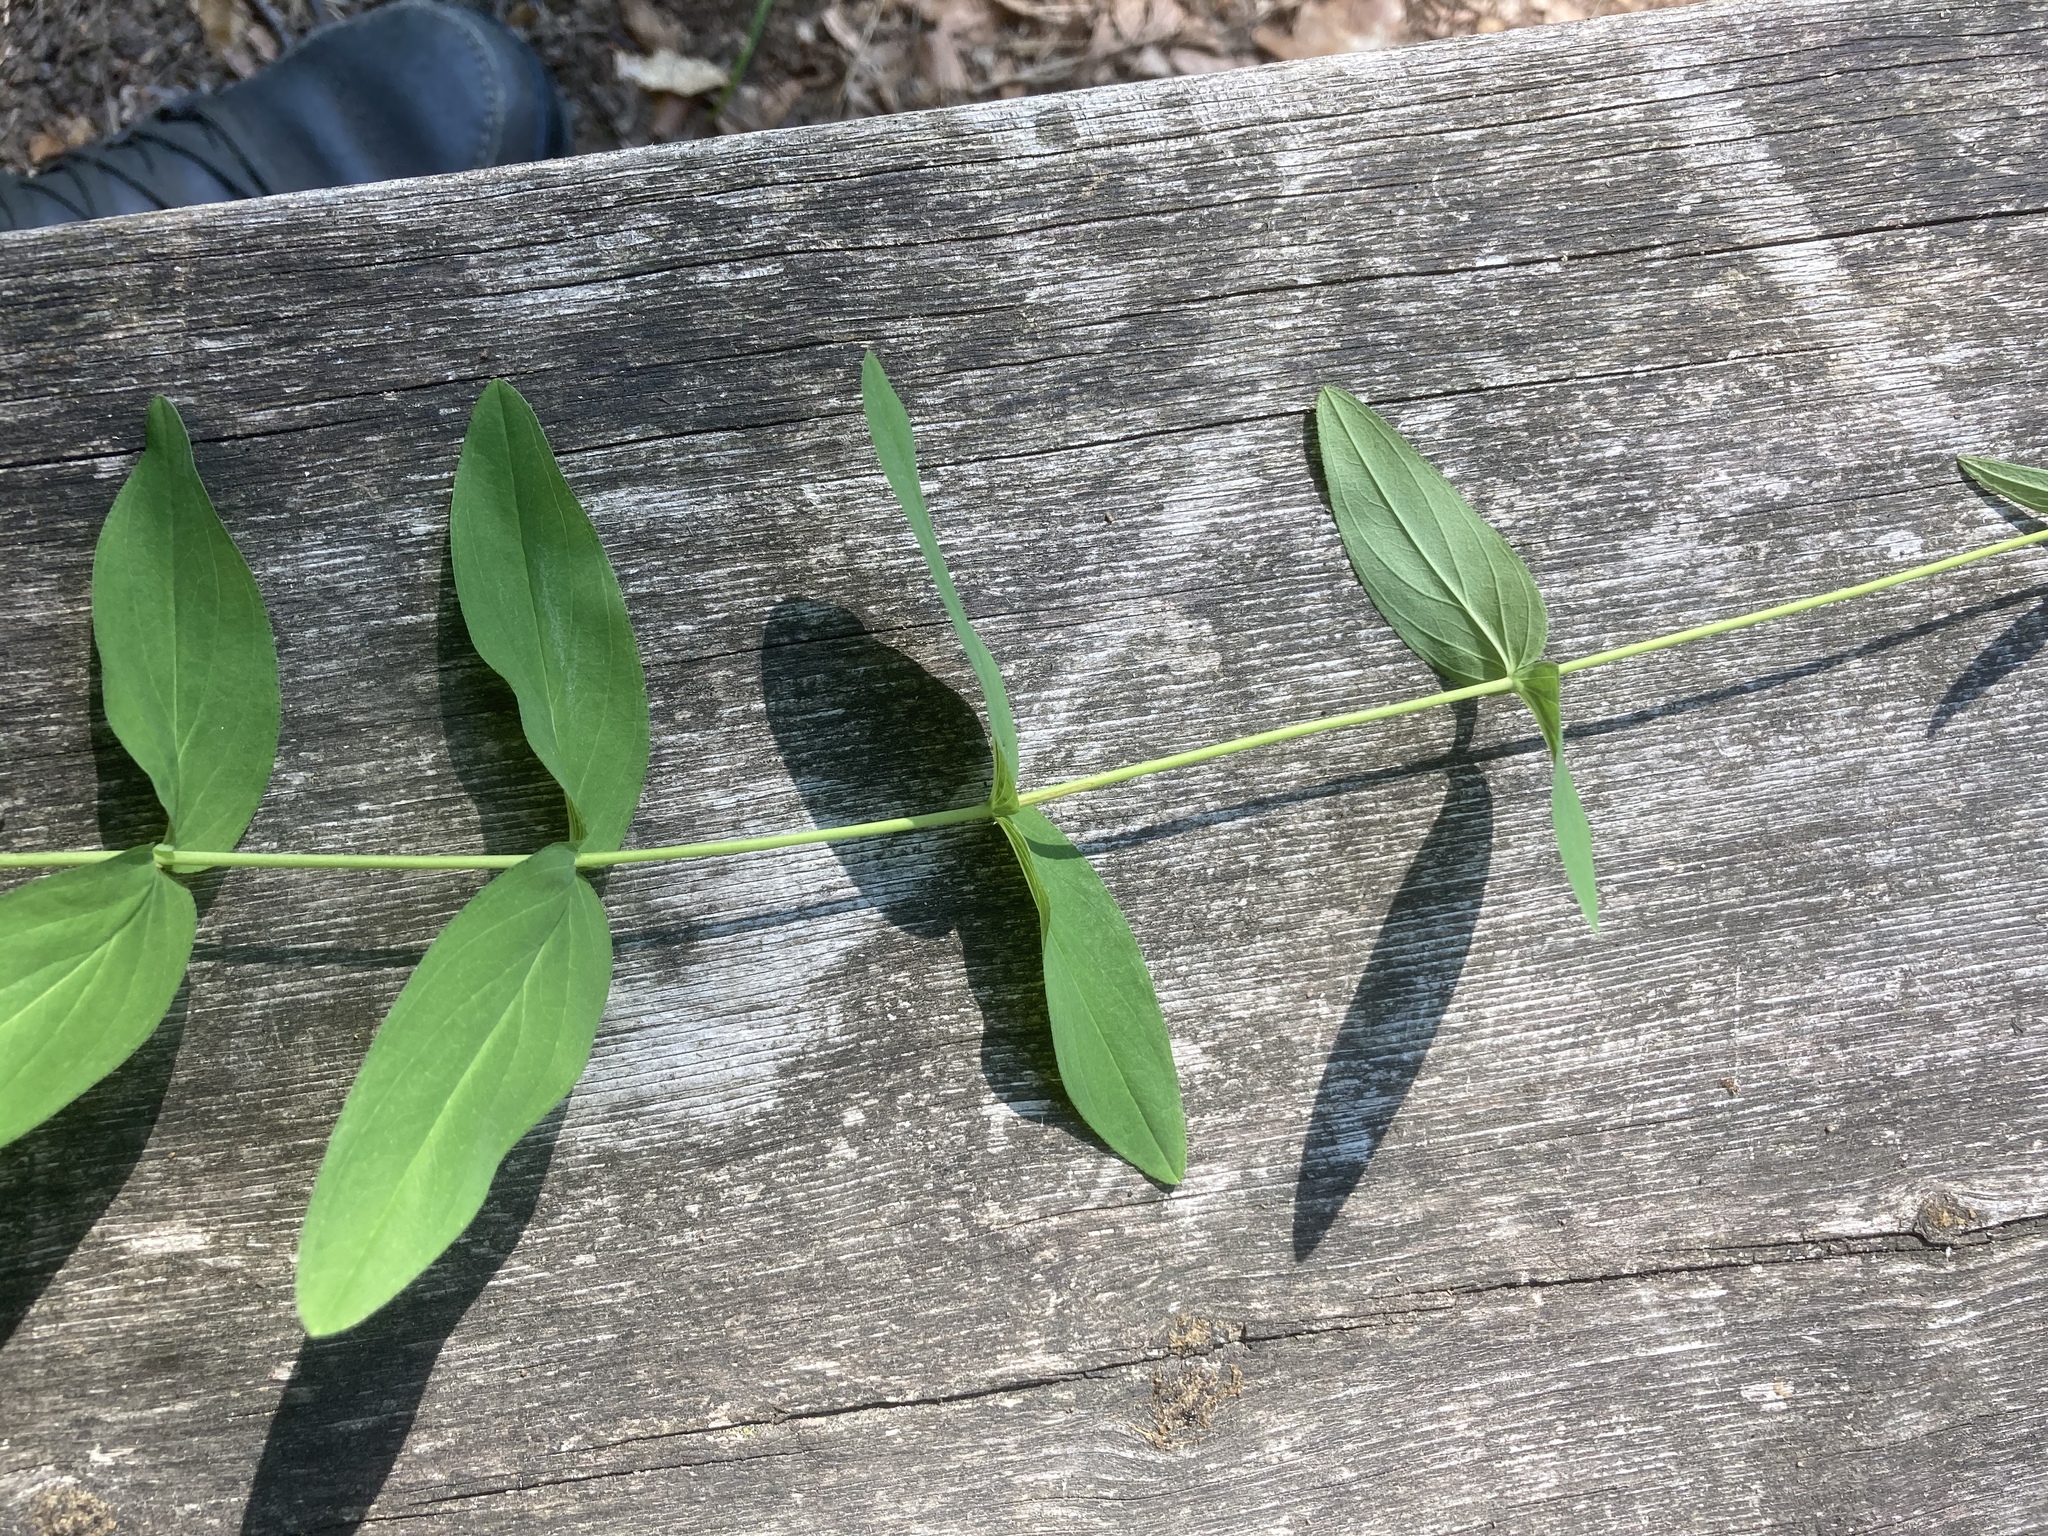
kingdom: Plantae
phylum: Tracheophyta
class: Magnoliopsida
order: Malpighiales
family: Hypericaceae
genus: Hypericum
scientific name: Hypericum montanum
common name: Pale st. john's-wort
